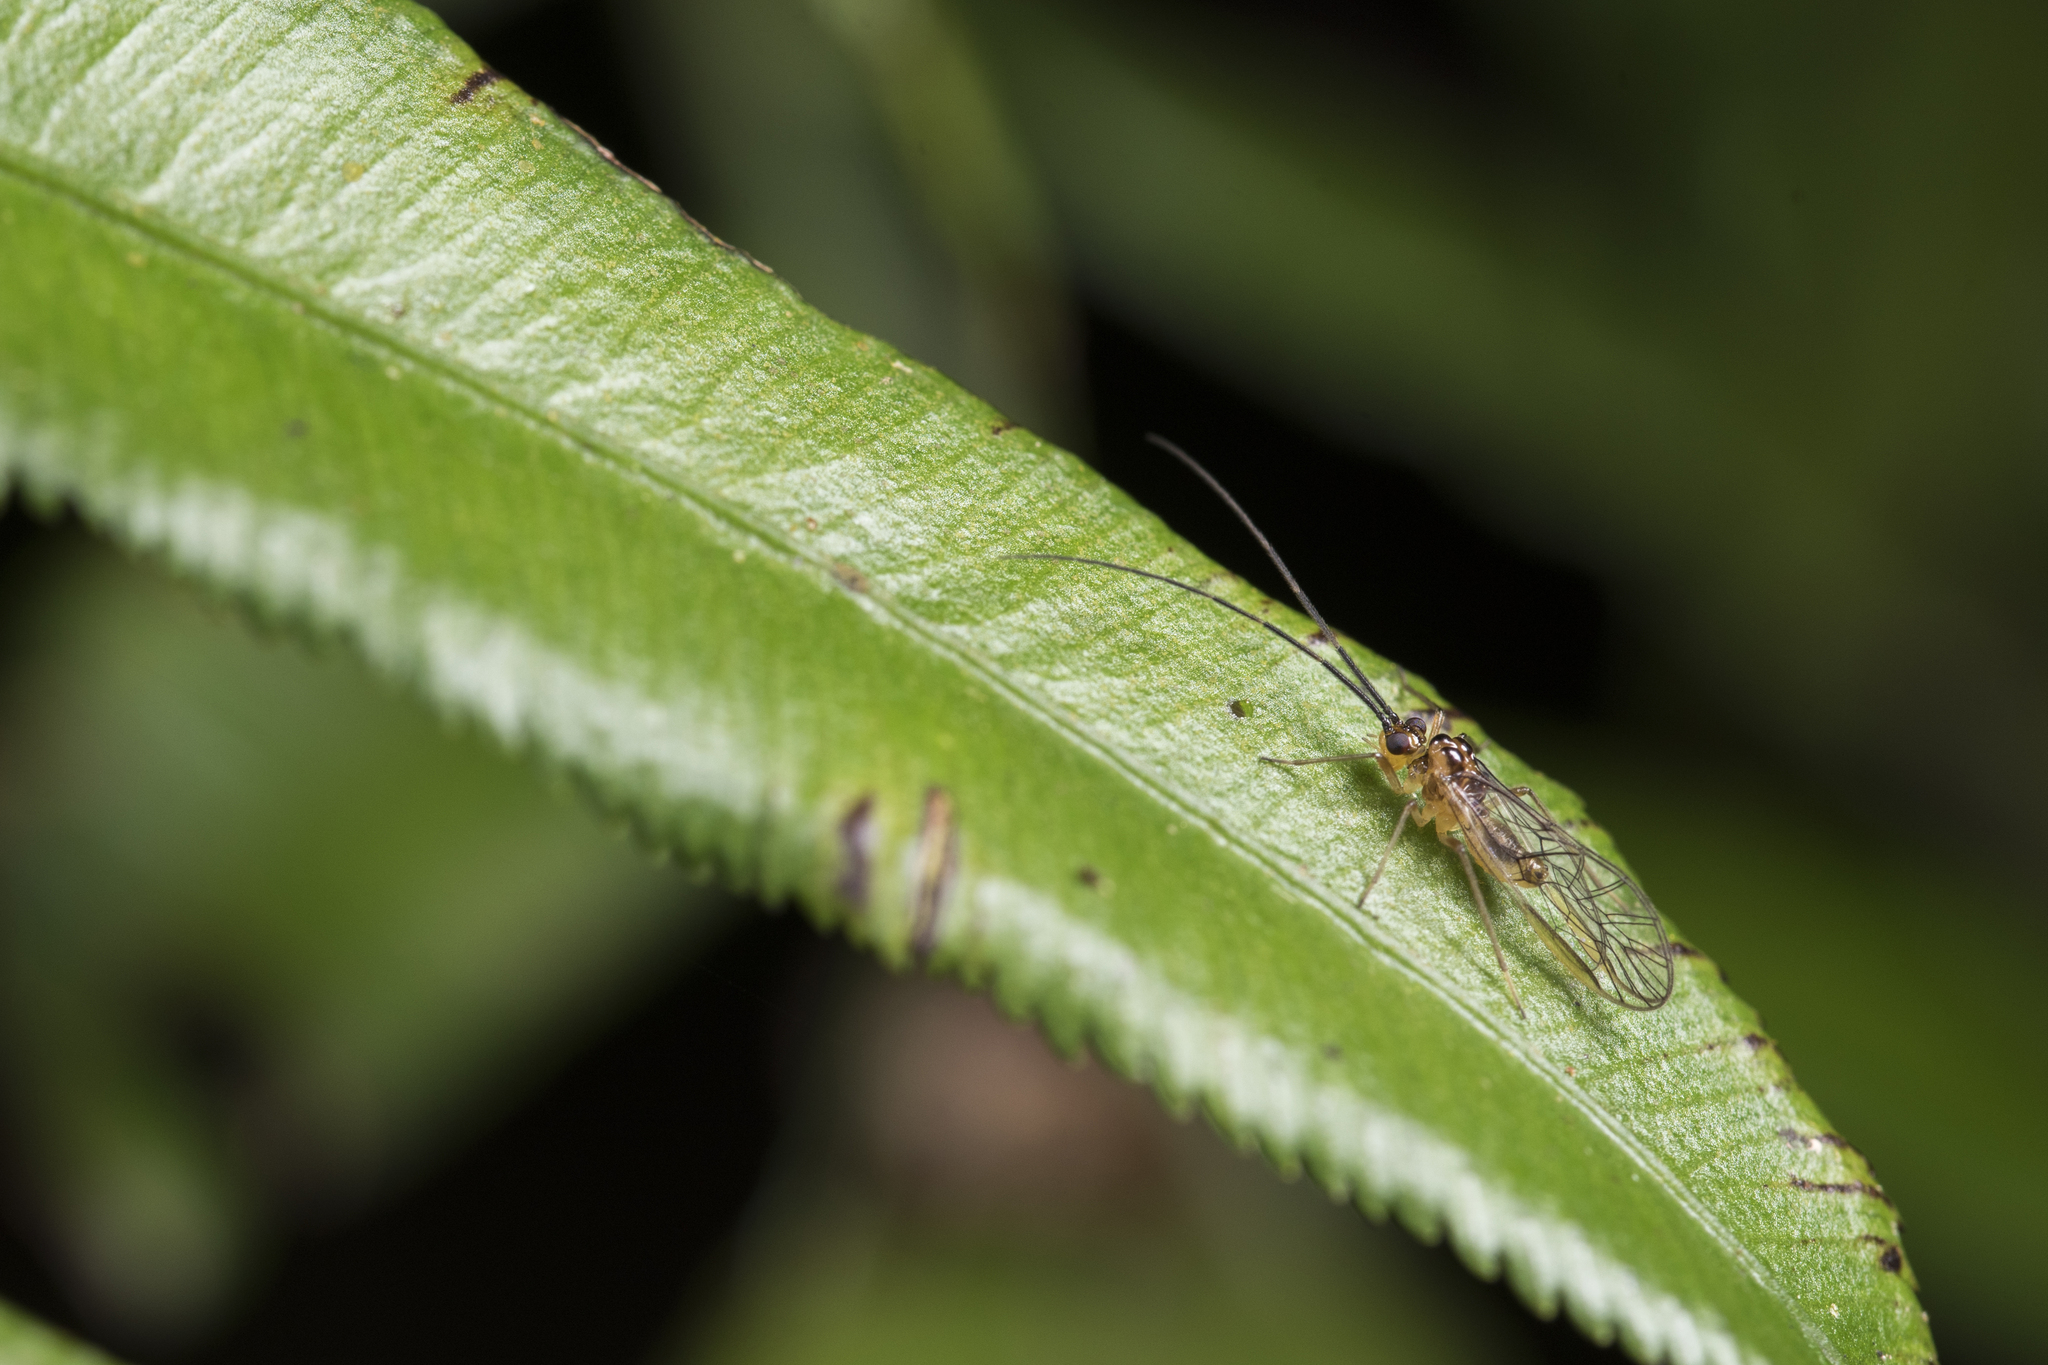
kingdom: Animalia
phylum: Arthropoda
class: Insecta
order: Psocodea
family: Amphipsocidae
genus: Taeniostigma
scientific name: Taeniostigma ingens
